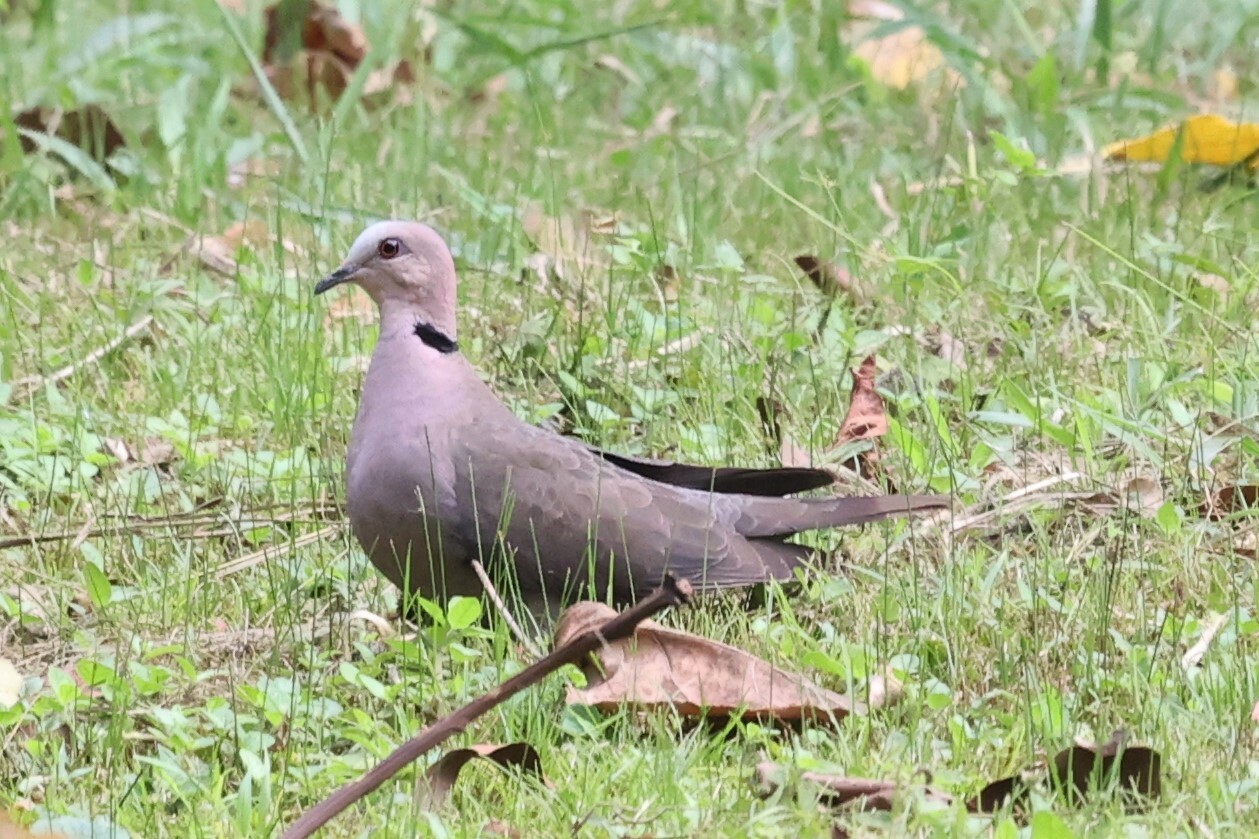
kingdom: Animalia
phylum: Chordata
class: Aves
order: Columbiformes
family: Columbidae
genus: Streptopelia
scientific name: Streptopelia semitorquata
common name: Red-eyed dove
